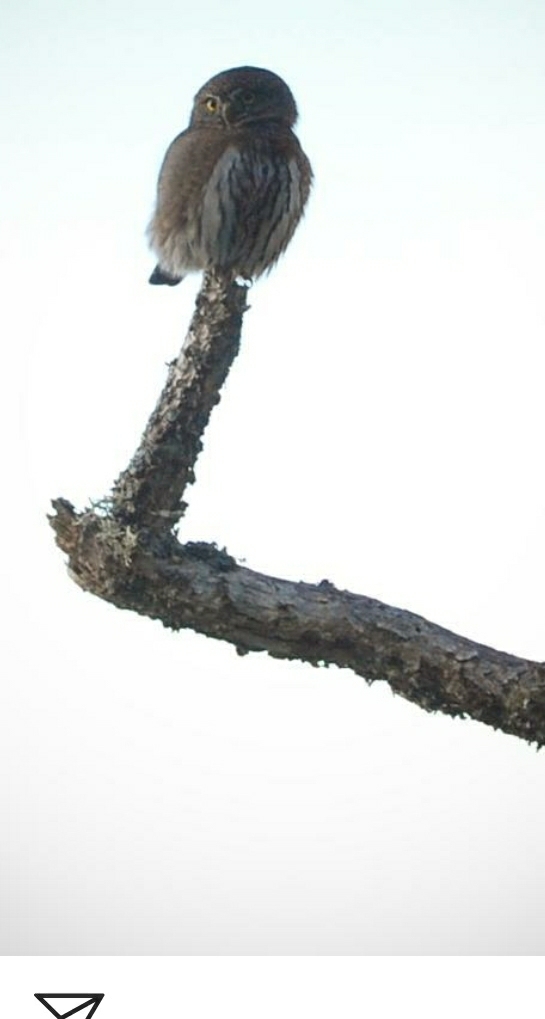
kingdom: Animalia
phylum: Chordata
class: Aves
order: Strigiformes
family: Strigidae
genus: Glaucidium
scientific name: Glaucidium californicum
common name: Northern pygmy owl
